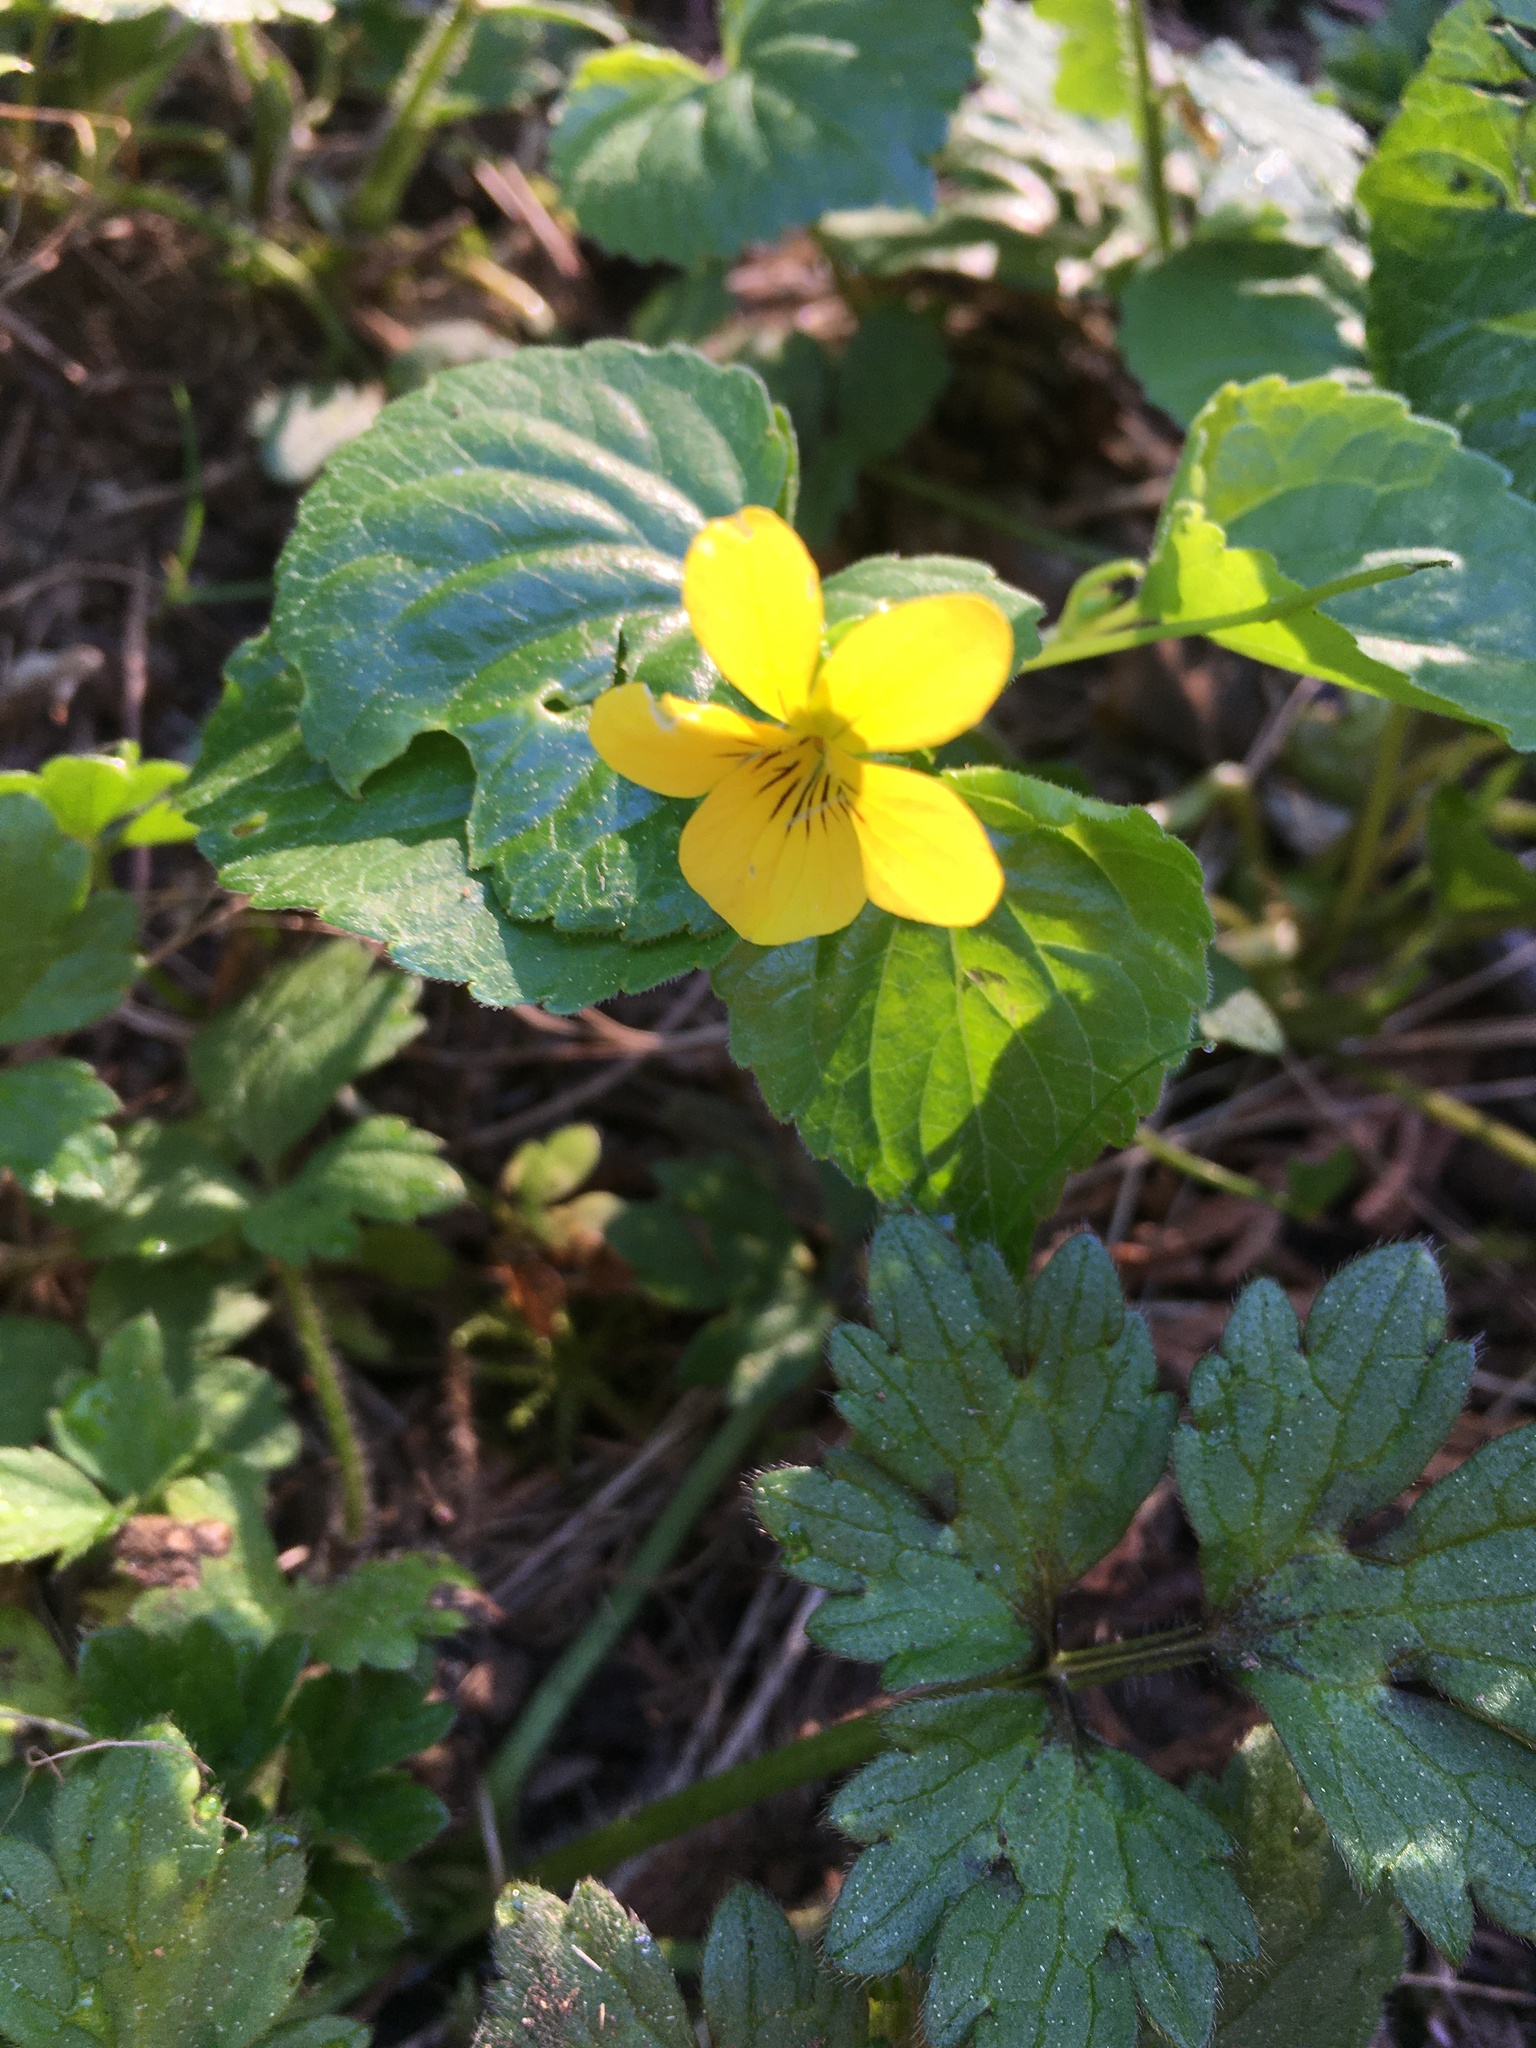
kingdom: Plantae
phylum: Tracheophyta
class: Magnoliopsida
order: Malpighiales
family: Violaceae
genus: Viola
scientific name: Viola glabella
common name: Stream violet
